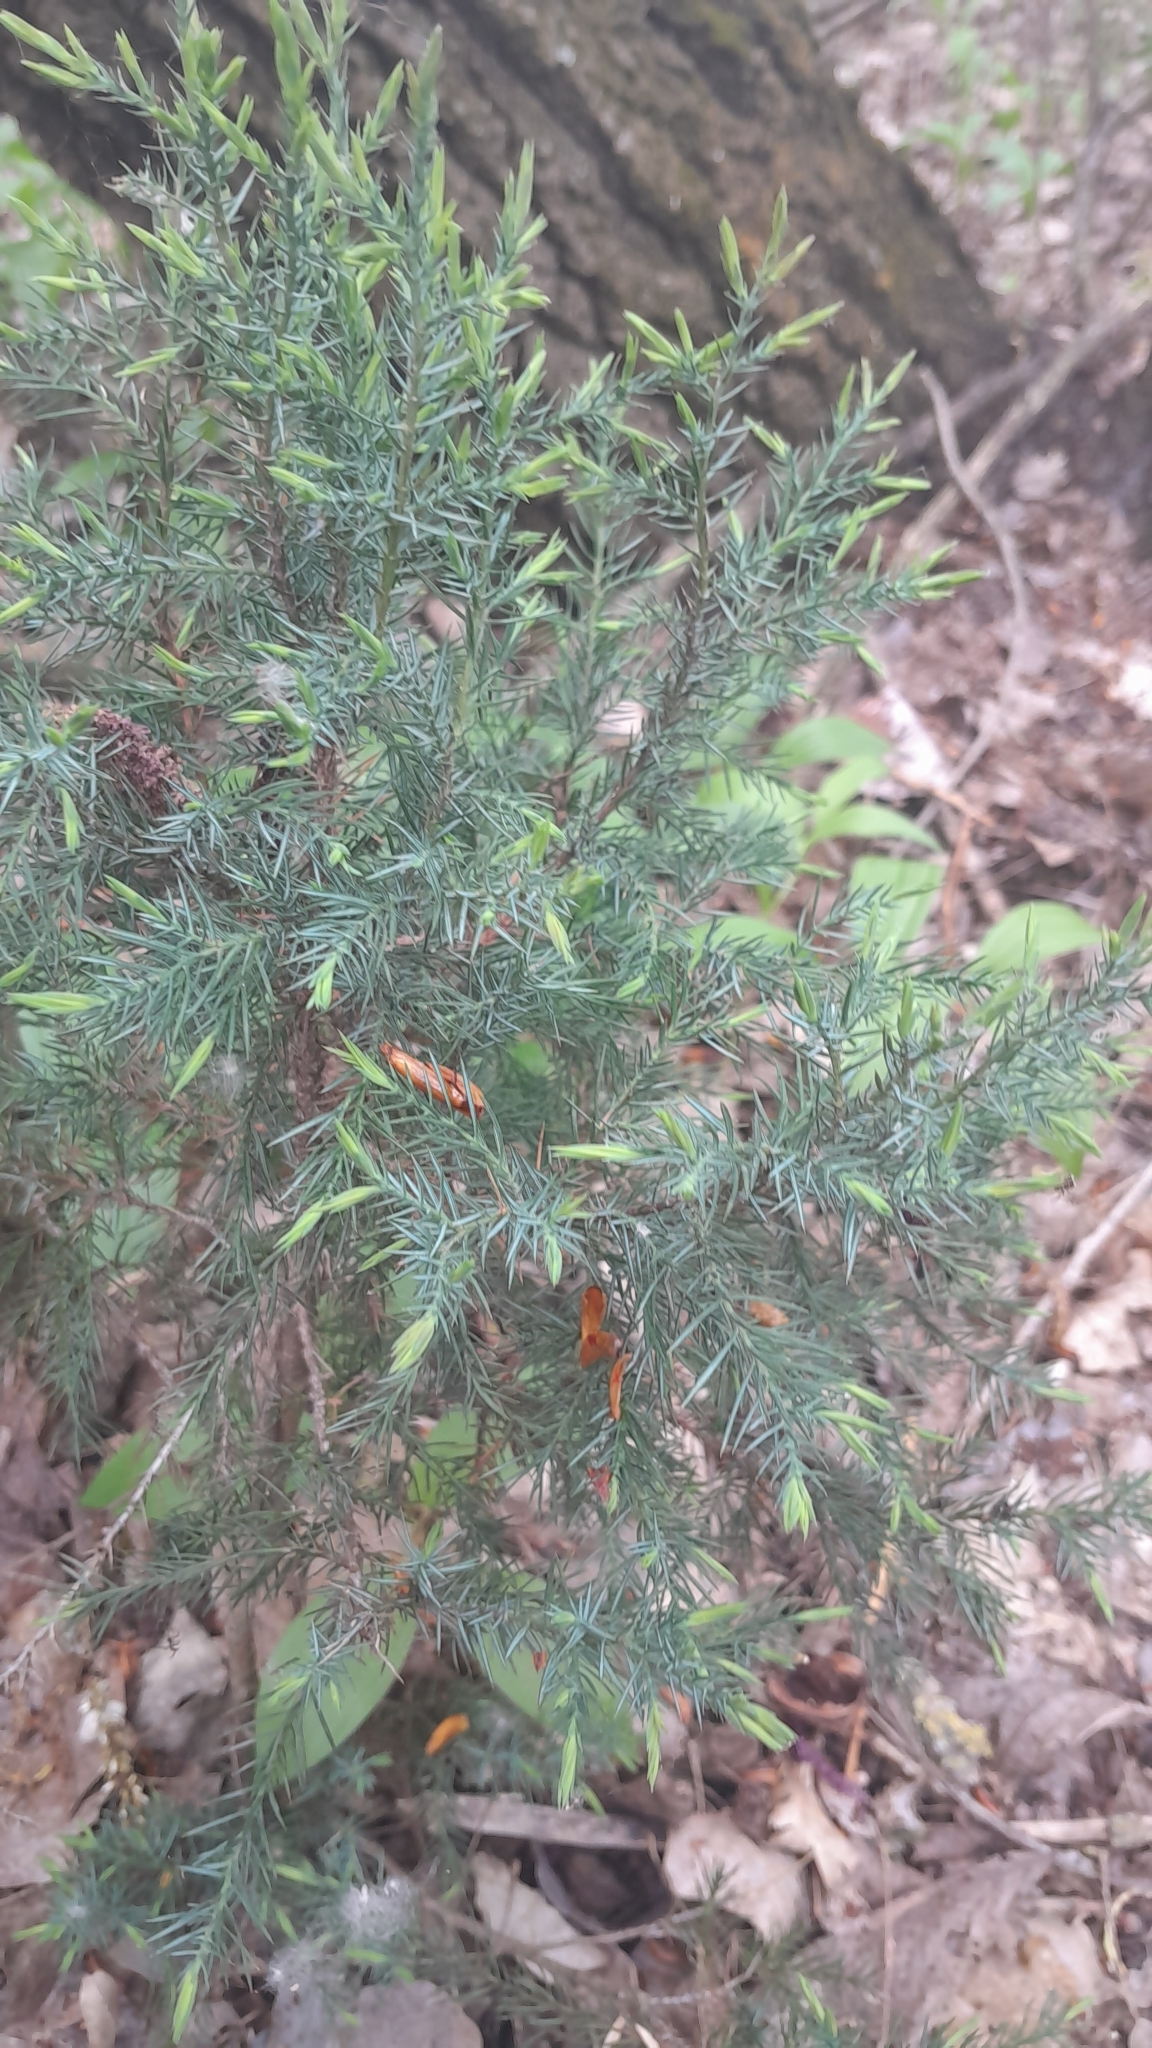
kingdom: Plantae
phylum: Tracheophyta
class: Pinopsida
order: Pinales
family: Cupressaceae
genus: Juniperus
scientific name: Juniperus communis
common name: Common juniper
